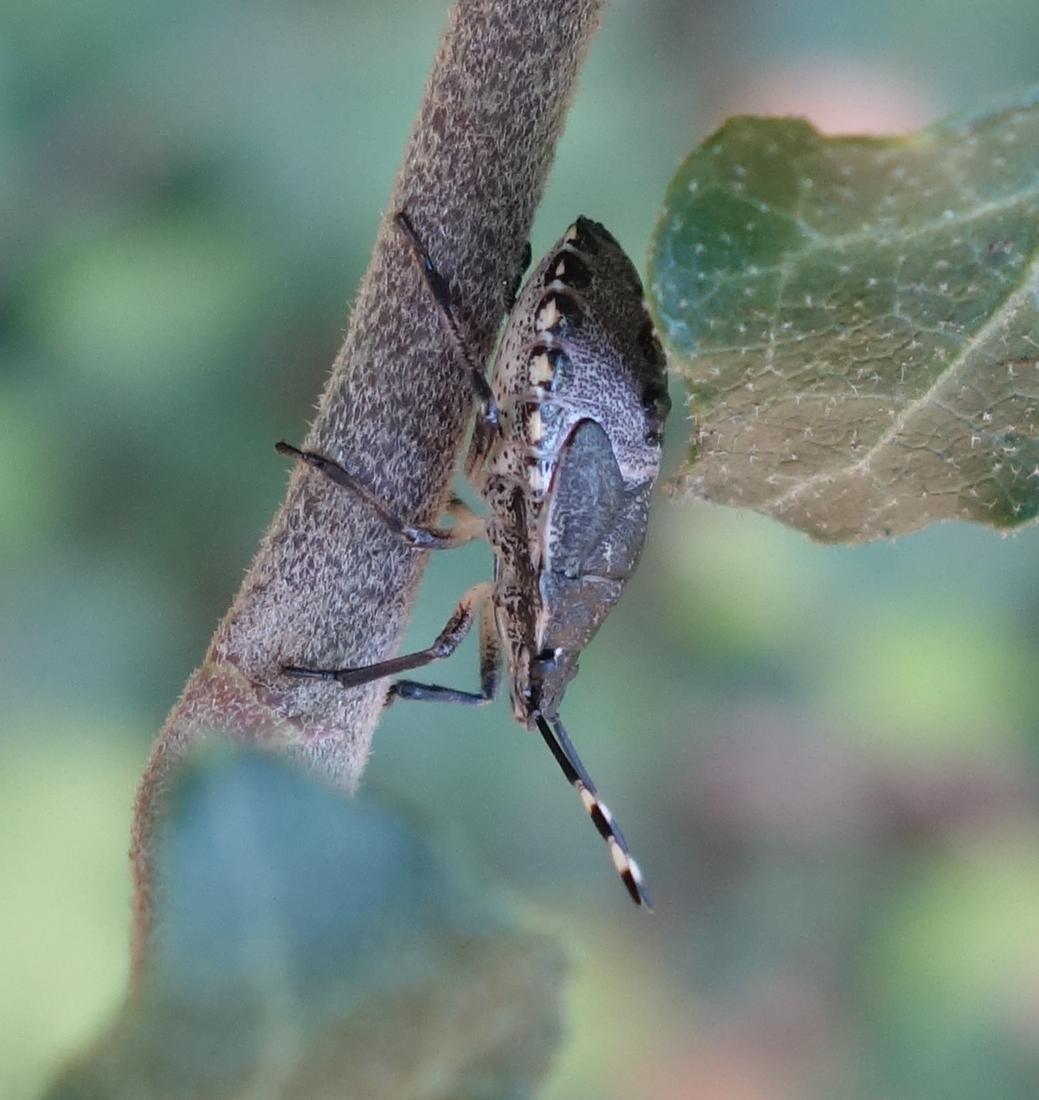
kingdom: Animalia
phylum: Arthropoda
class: Insecta
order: Hemiptera
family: Pentatomidae
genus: Rhaphigaster
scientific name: Rhaphigaster nebulosa
